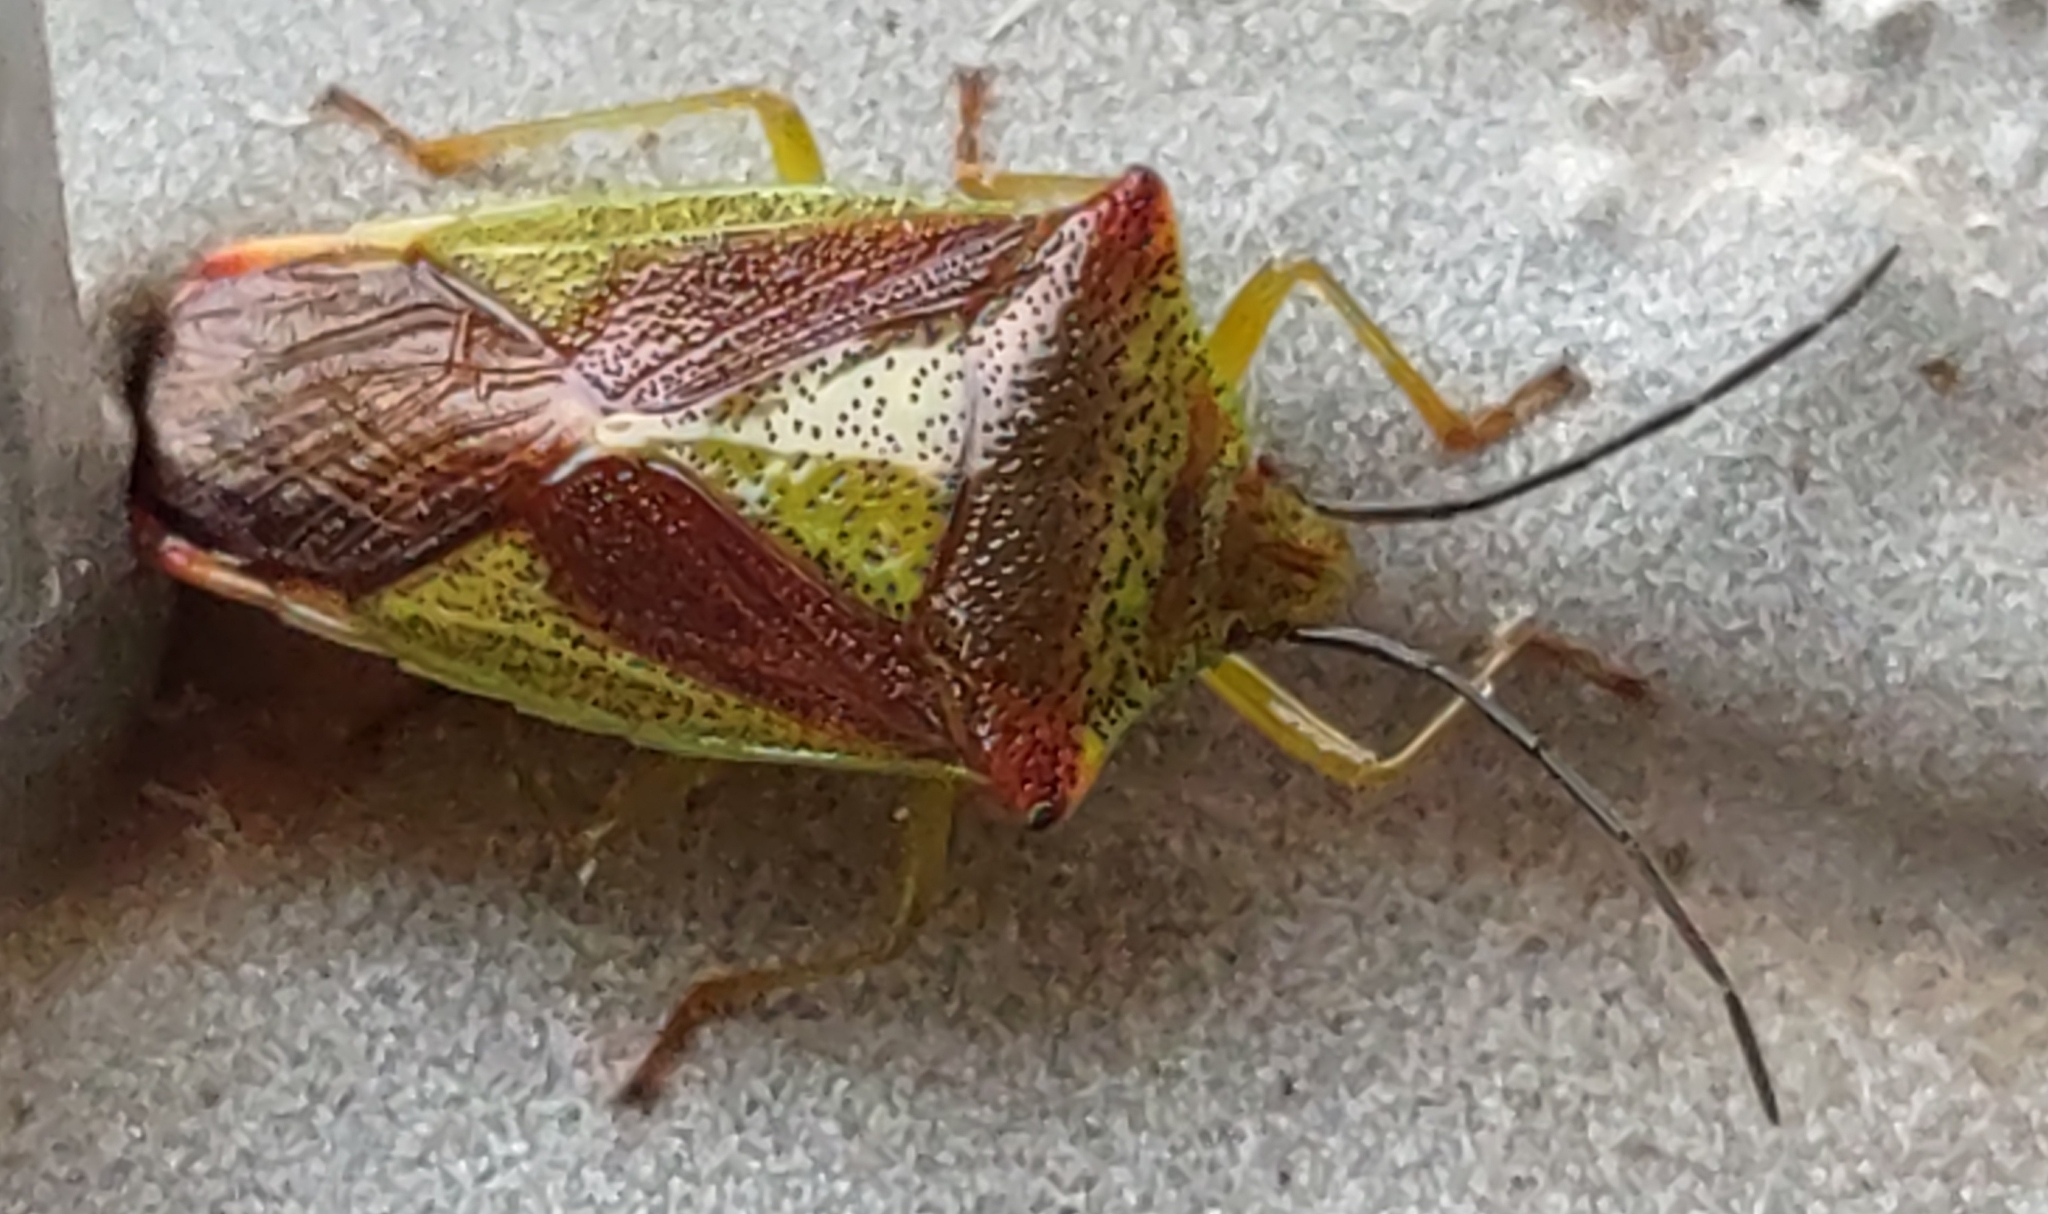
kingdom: Animalia
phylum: Arthropoda
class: Insecta
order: Hemiptera
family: Acanthosomatidae
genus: Acanthosoma
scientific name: Acanthosoma haemorrhoidale
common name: Hawthorn shieldbug
